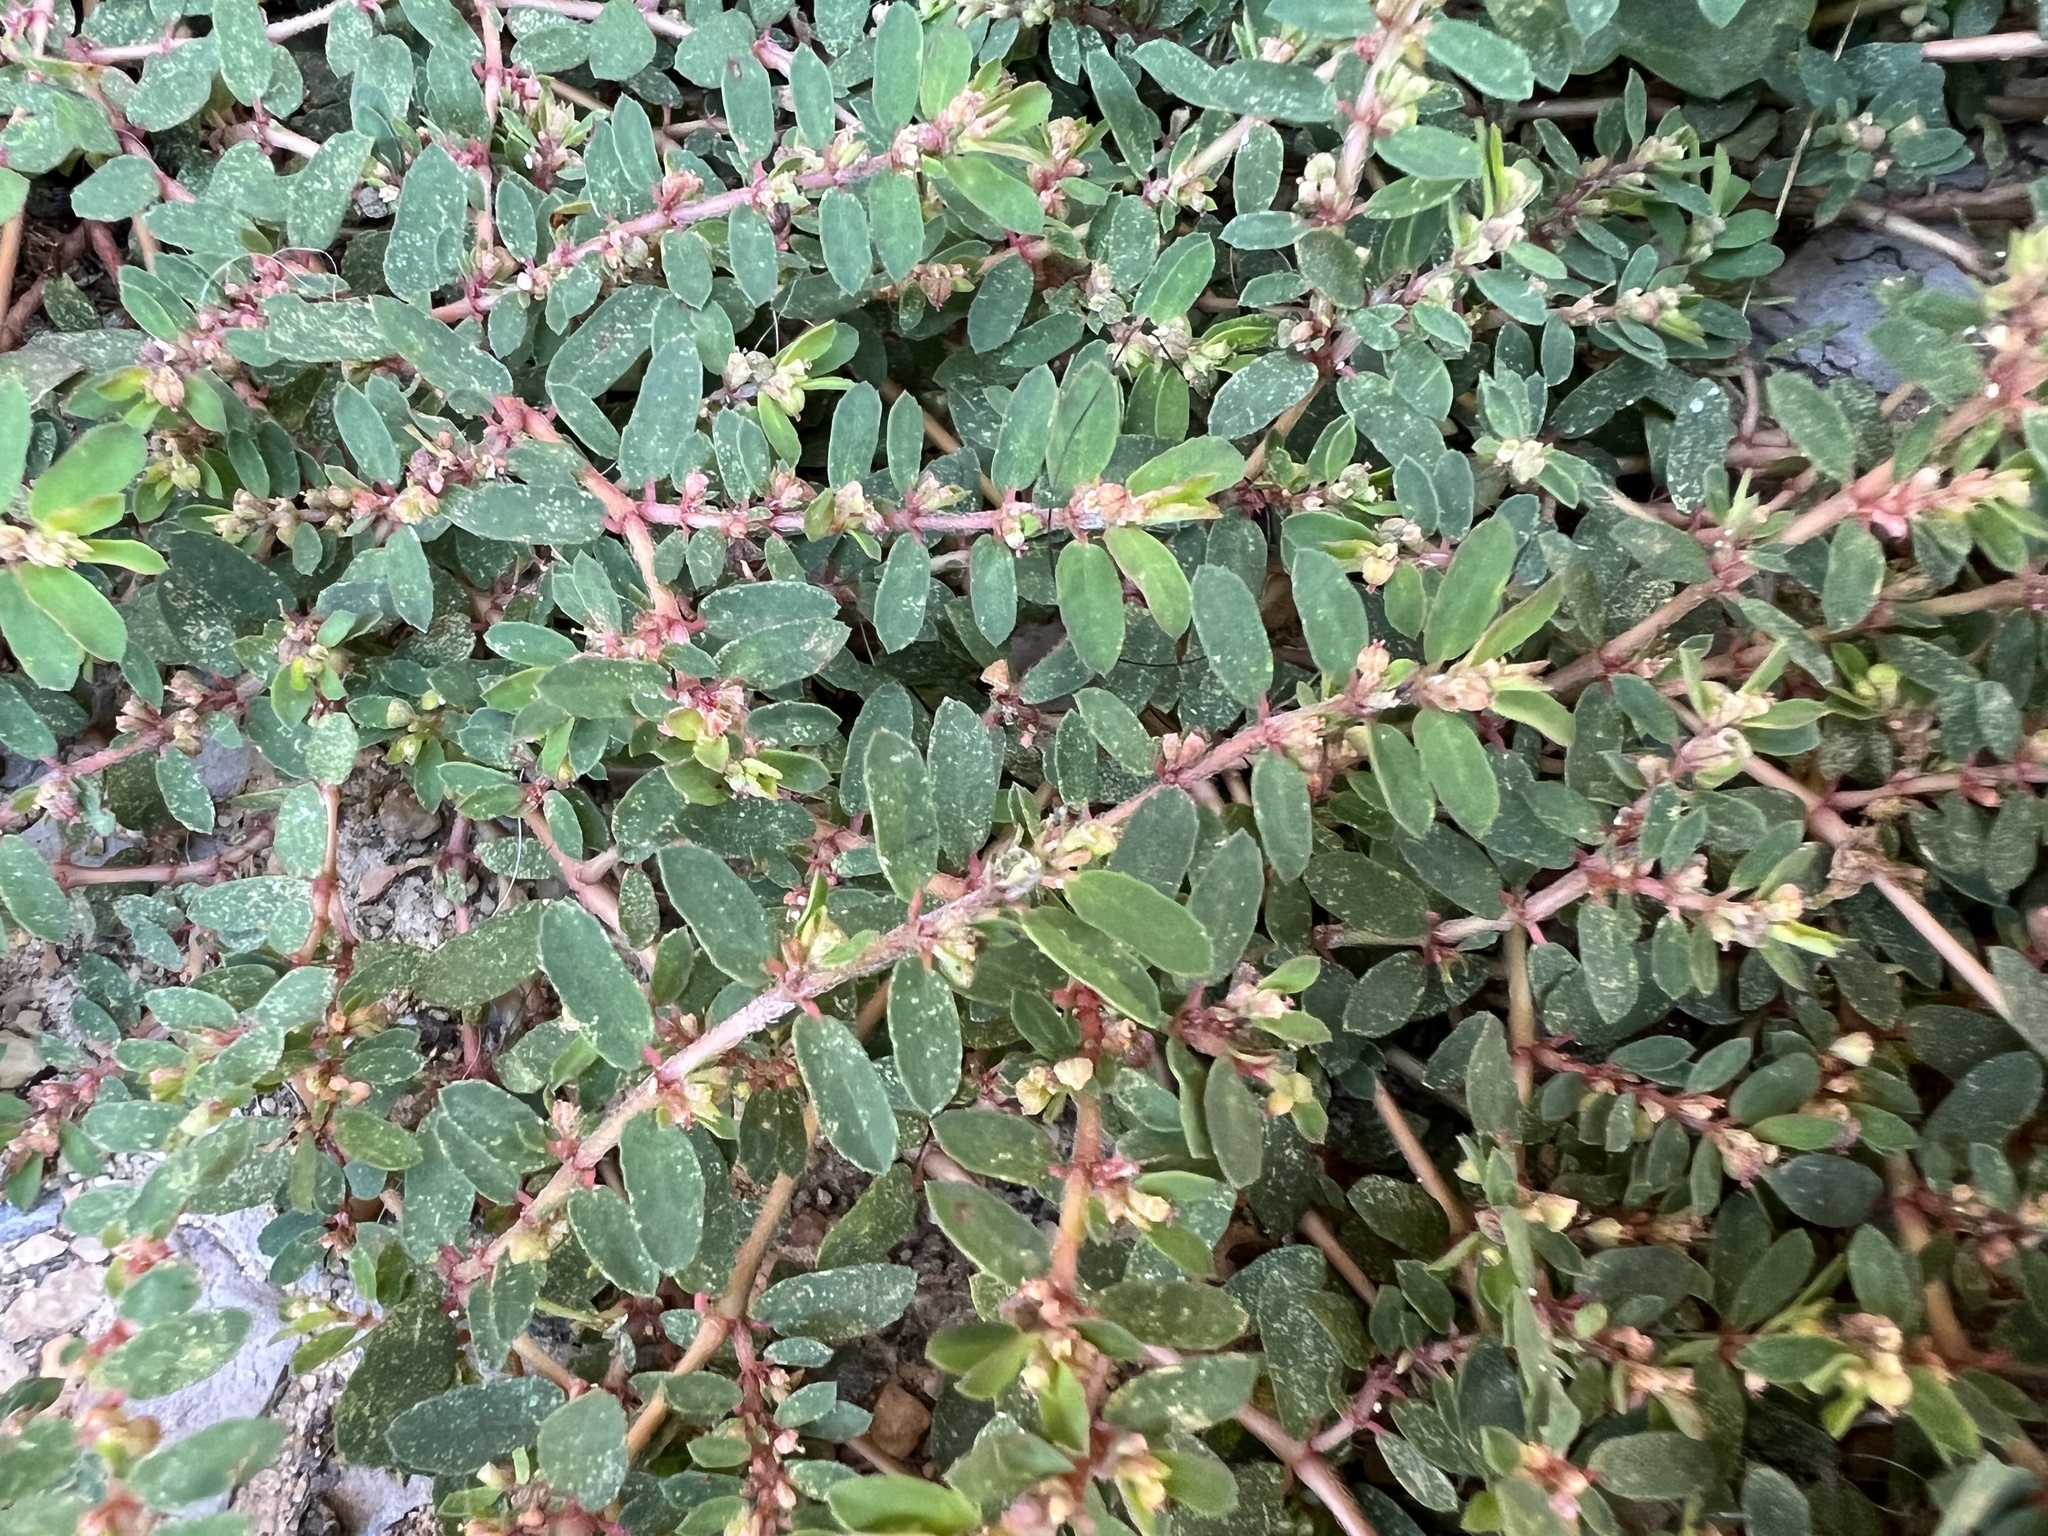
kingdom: Plantae
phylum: Tracheophyta
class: Magnoliopsida
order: Malpighiales
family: Euphorbiaceae
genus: Euphorbia
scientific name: Euphorbia maculata
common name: Spotted spurge
